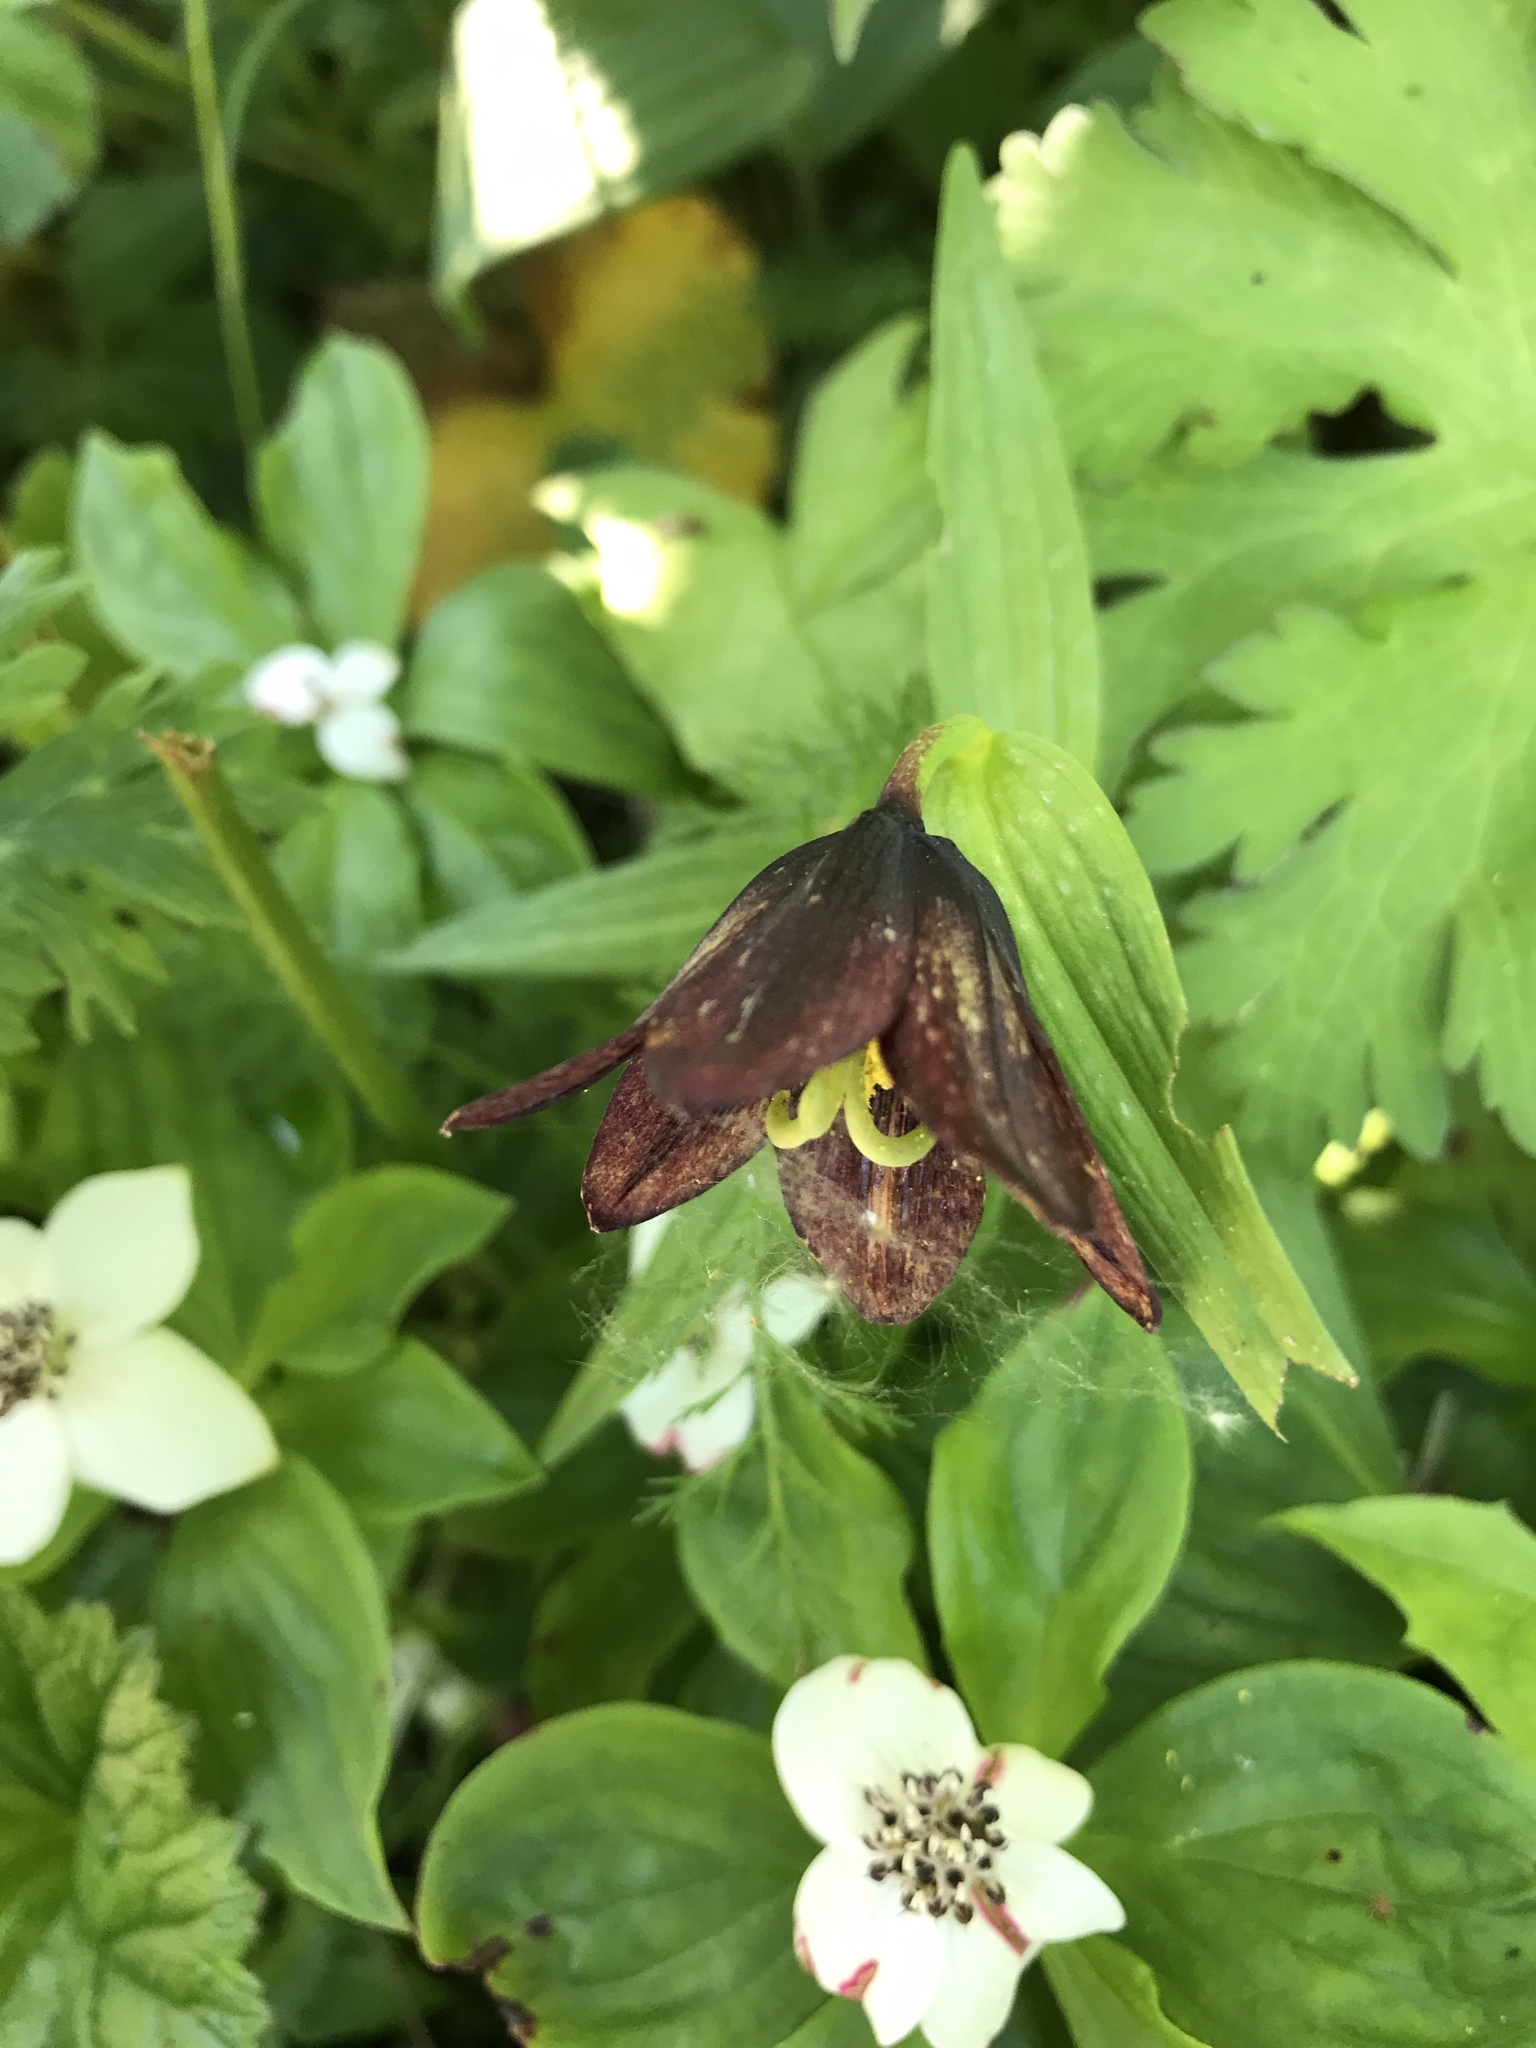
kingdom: Plantae
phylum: Tracheophyta
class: Liliopsida
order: Liliales
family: Liliaceae
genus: Fritillaria
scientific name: Fritillaria camschatcensis
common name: Kamchatka fritillary
